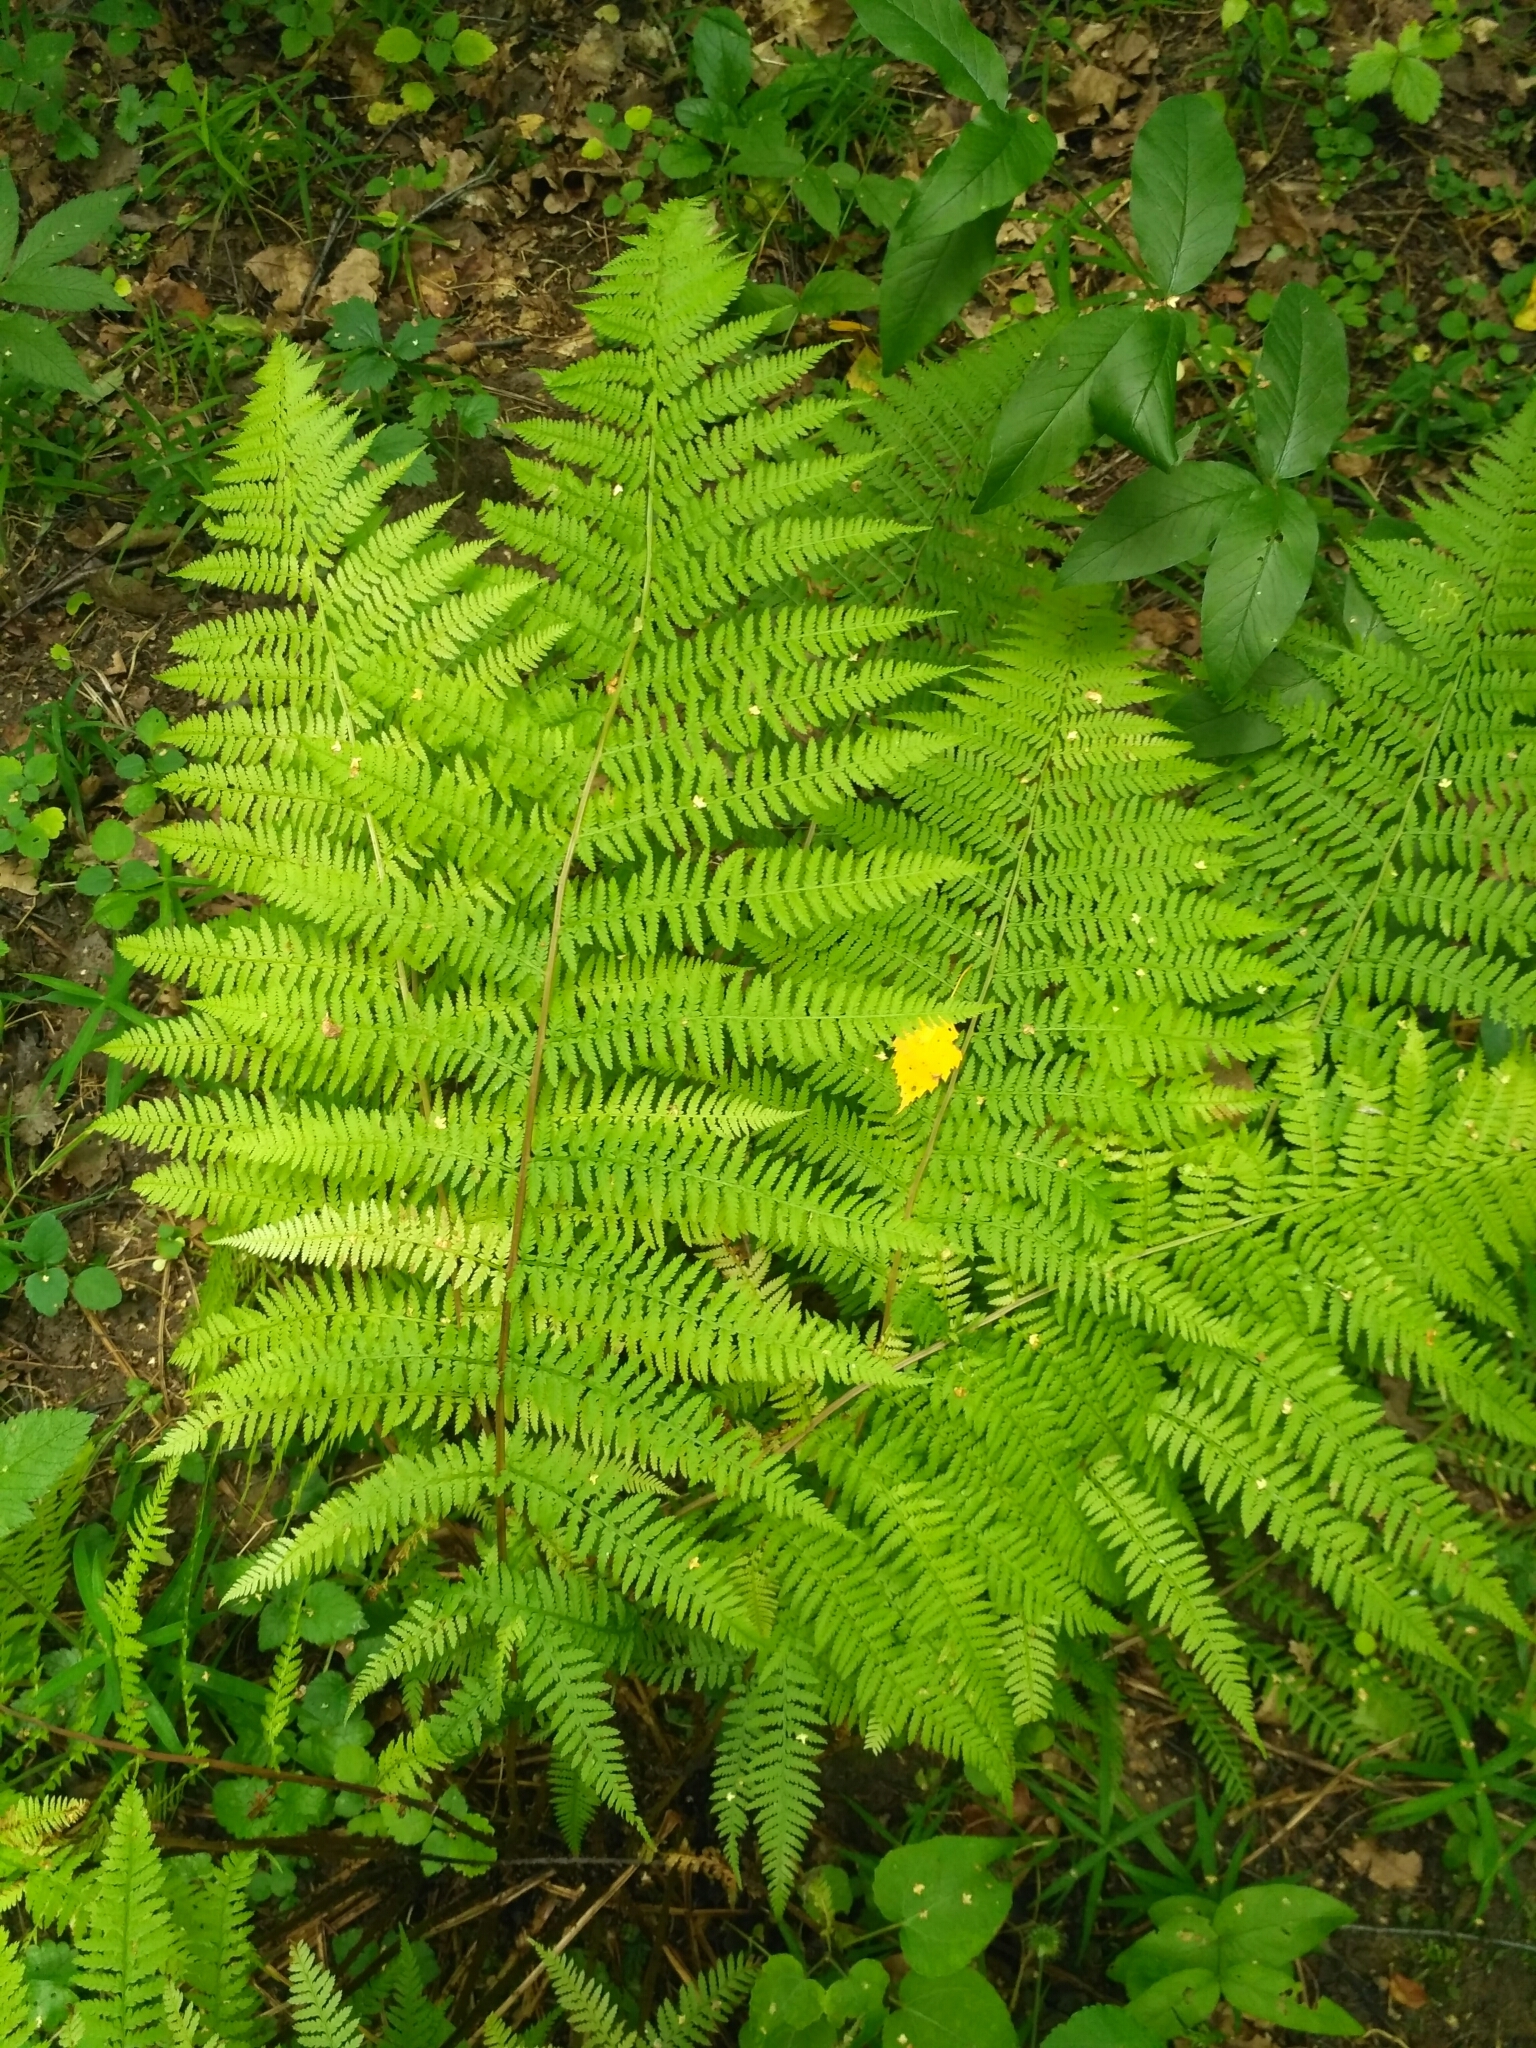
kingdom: Plantae
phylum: Tracheophyta
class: Polypodiopsida
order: Polypodiales
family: Athyriaceae
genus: Athyrium
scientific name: Athyrium filix-femina
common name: Lady fern
